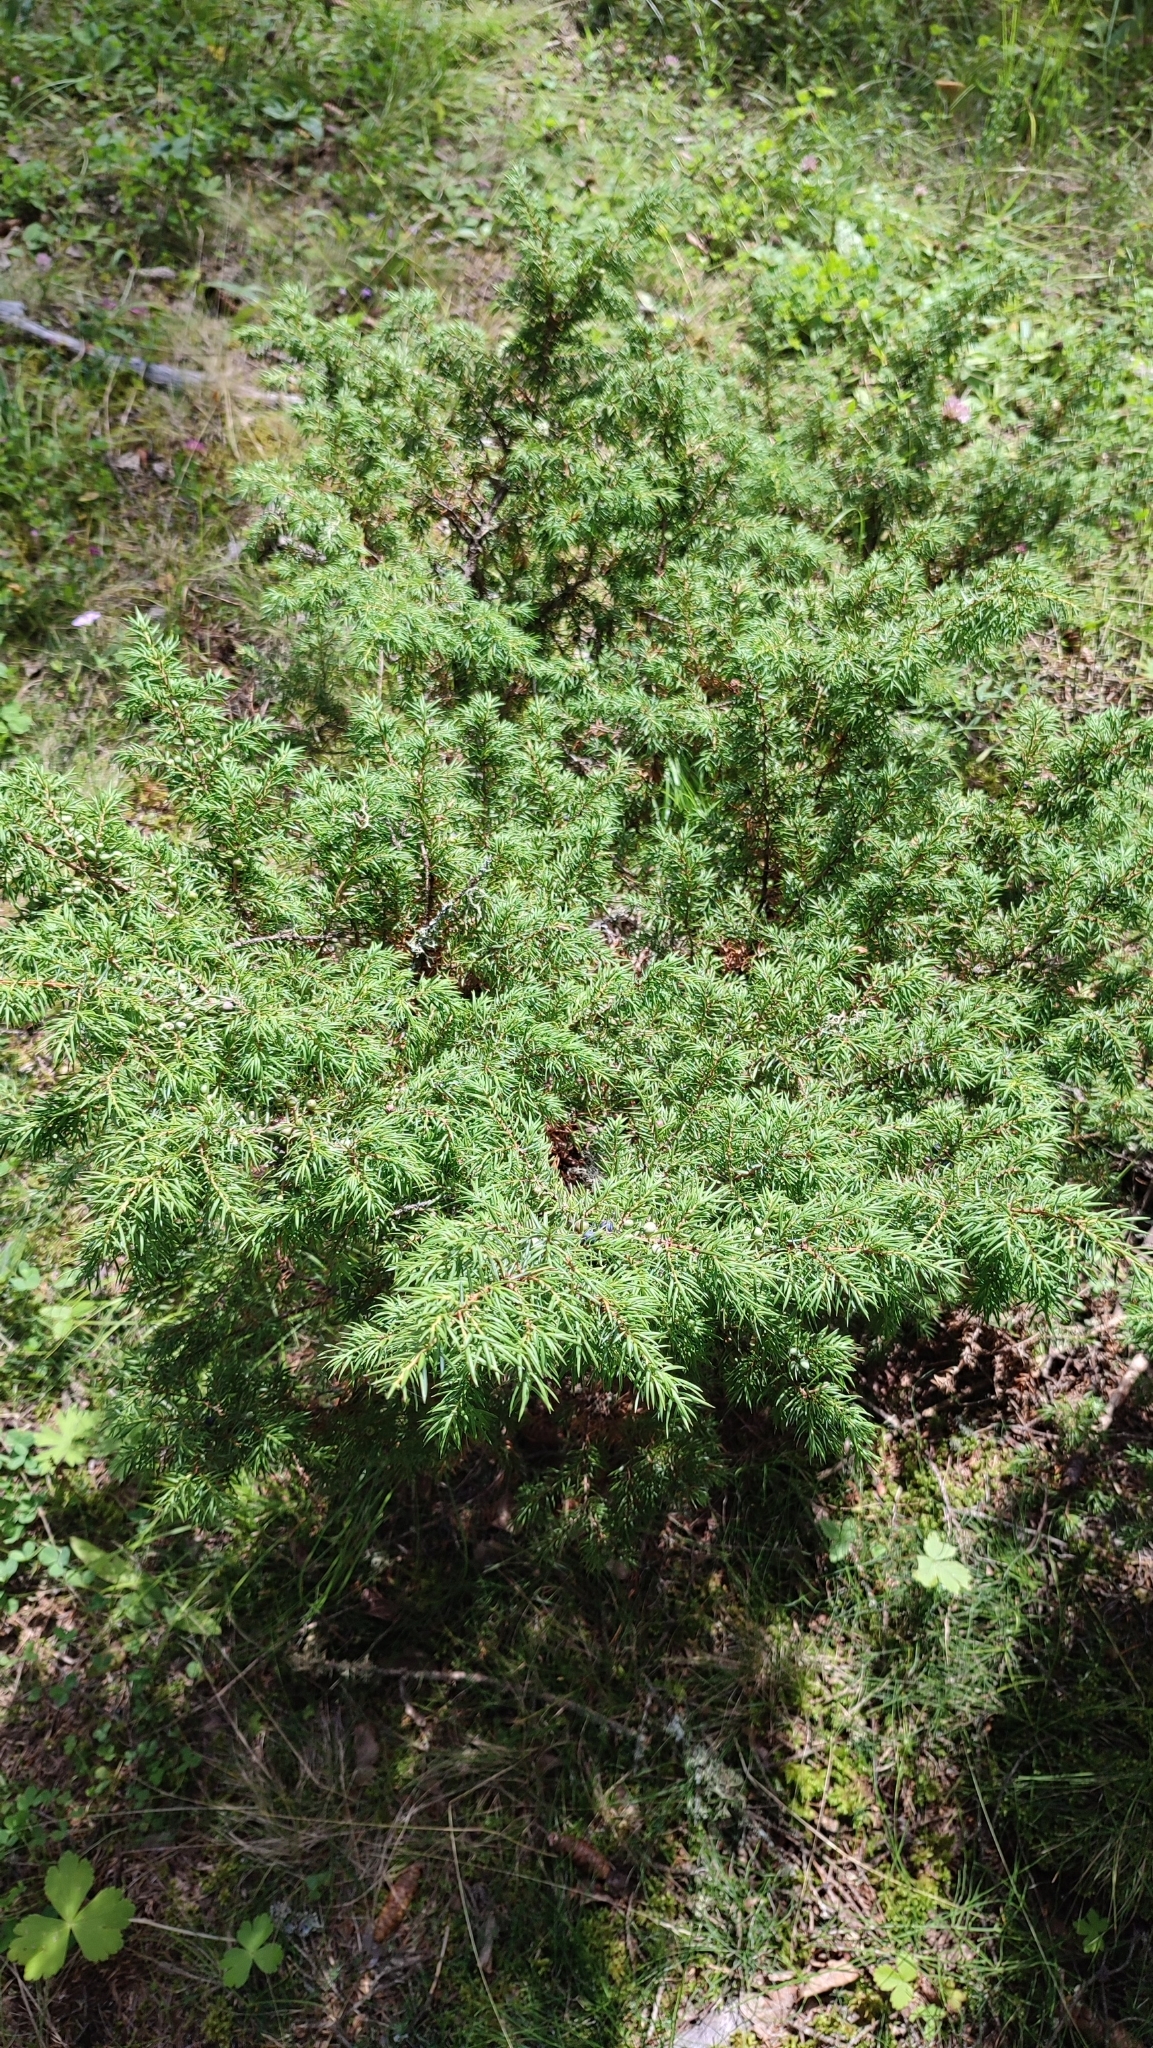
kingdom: Plantae
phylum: Tracheophyta
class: Pinopsida
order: Pinales
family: Cupressaceae
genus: Juniperus
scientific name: Juniperus communis
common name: Common juniper
